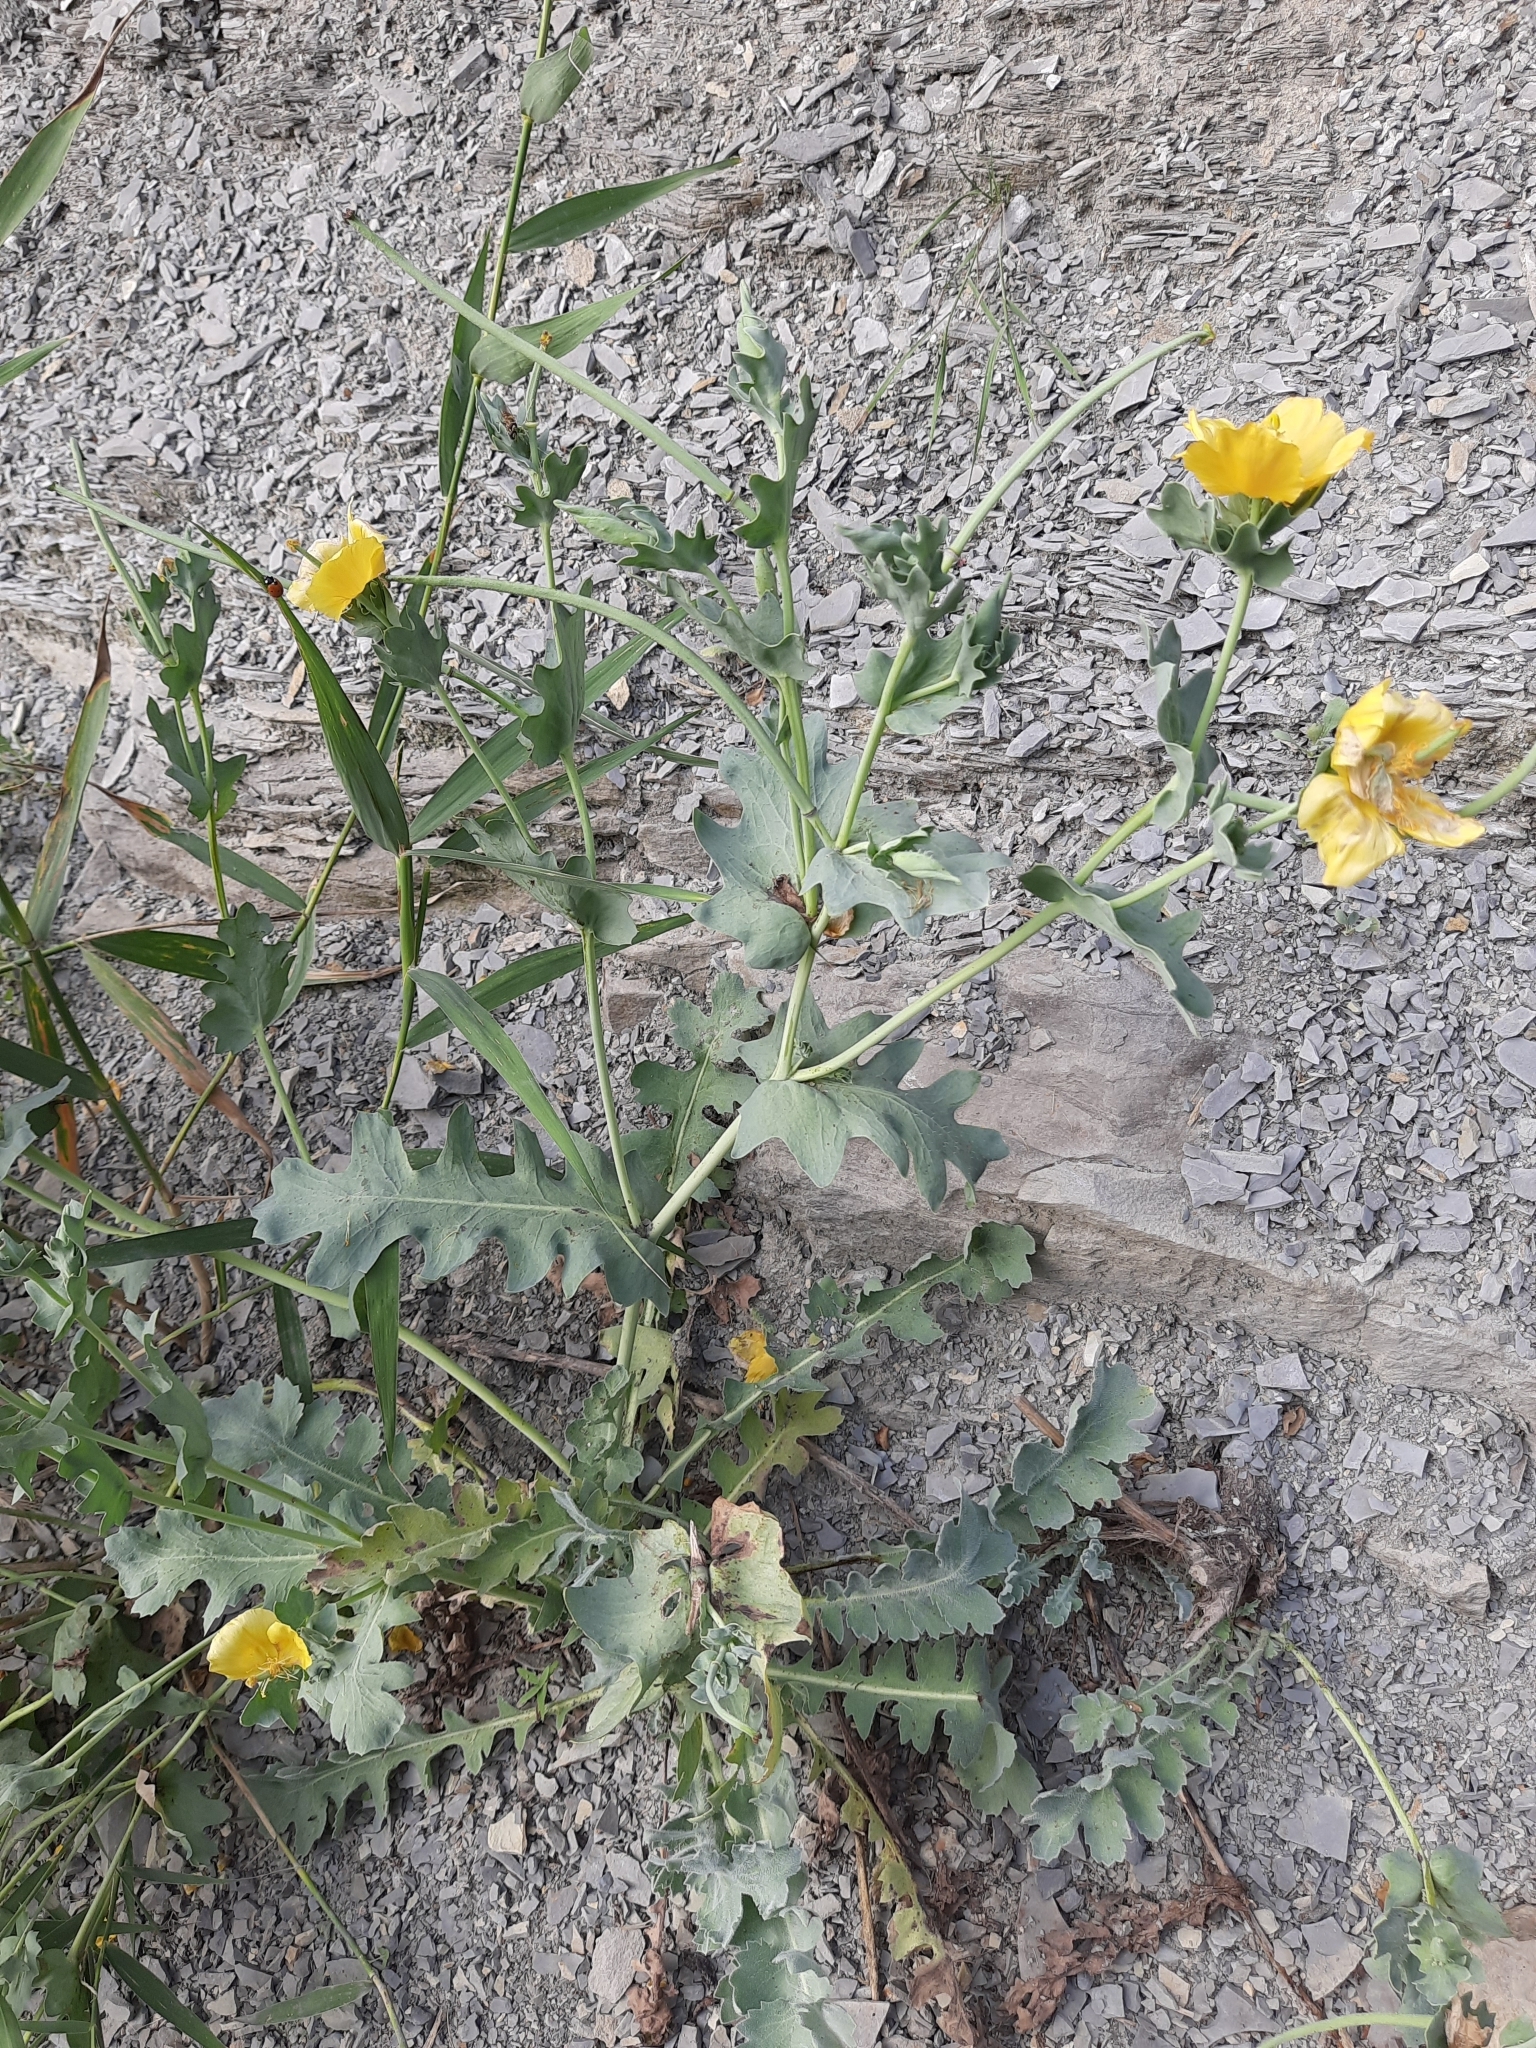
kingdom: Plantae
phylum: Tracheophyta
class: Magnoliopsida
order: Ranunculales
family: Papaveraceae
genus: Glaucium
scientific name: Glaucium flavum
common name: Yellow horned-poppy
